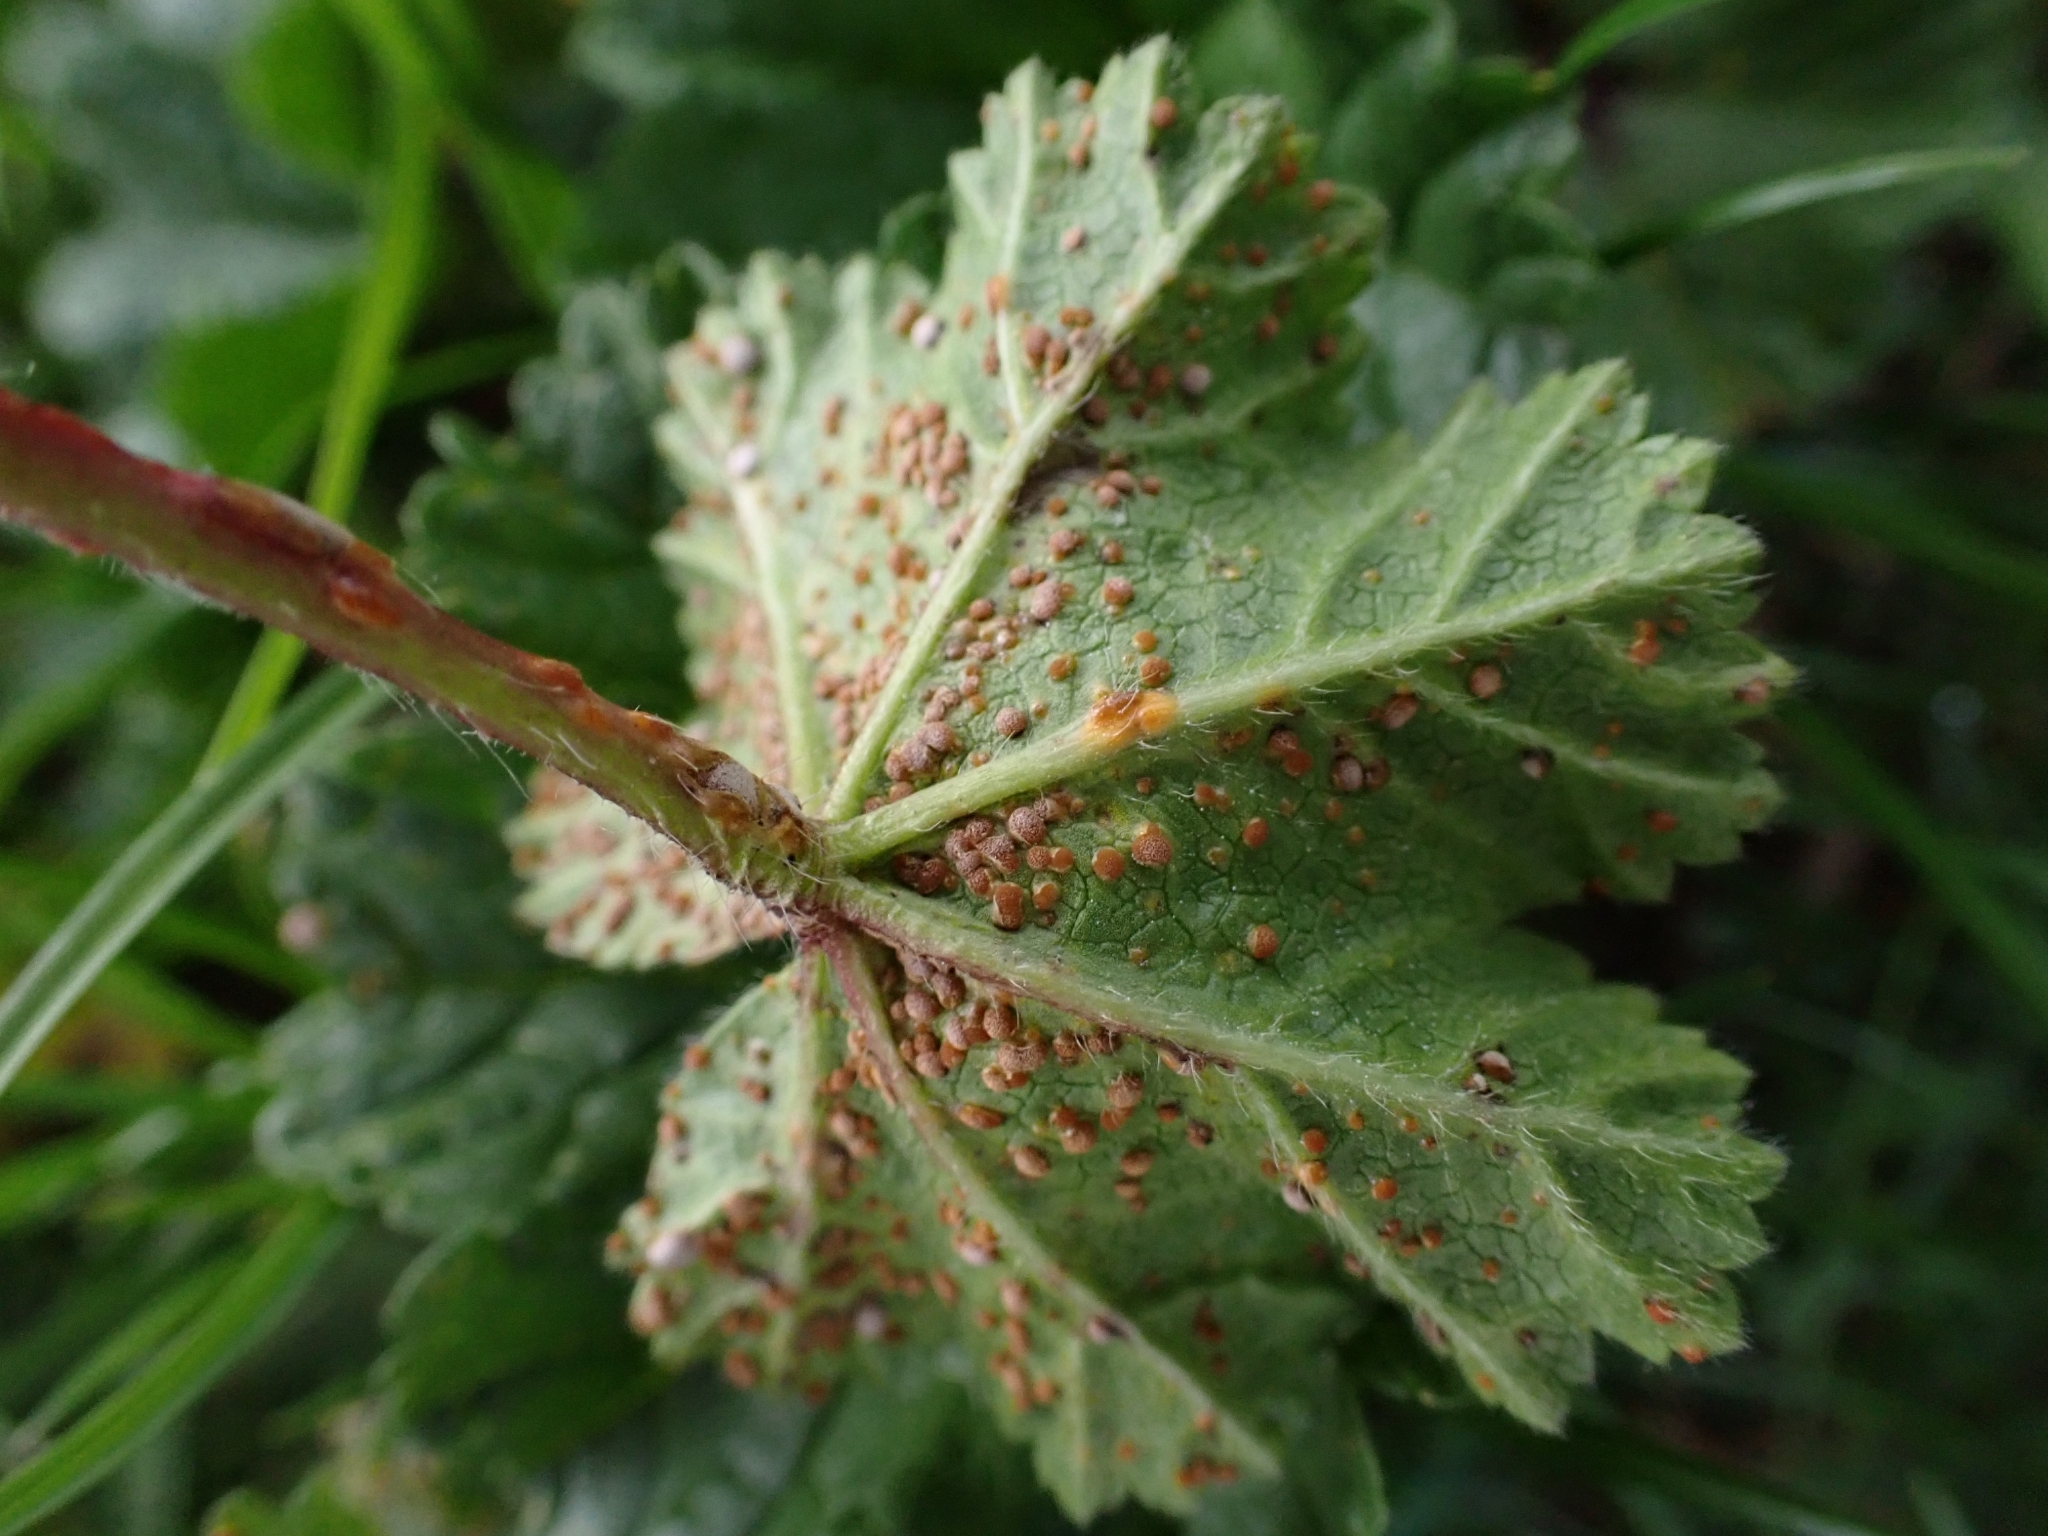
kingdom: Fungi
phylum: Basidiomycota
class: Pucciniomycetes
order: Pucciniales
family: Pucciniaceae
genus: Puccinia
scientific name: Puccinia malvacearum
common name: Hollyhock rust
